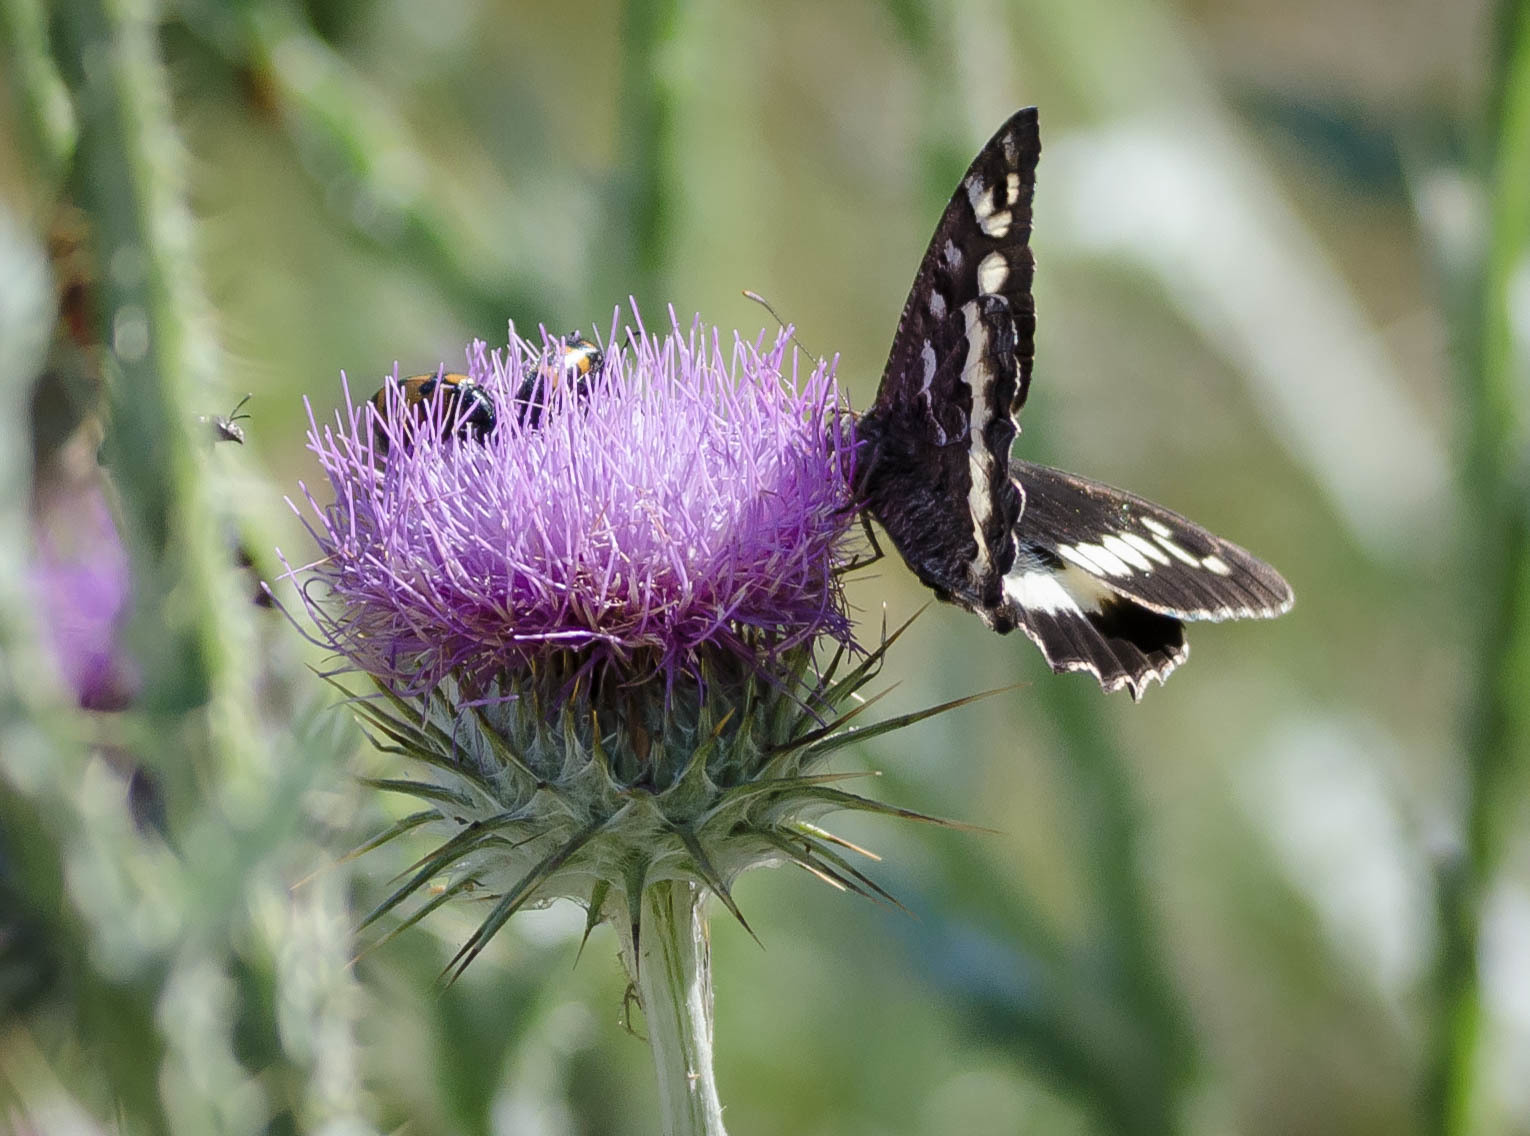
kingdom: Animalia
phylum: Arthropoda
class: Insecta
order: Lepidoptera
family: Lycaenidae
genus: Loweia
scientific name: Loweia tityrus
